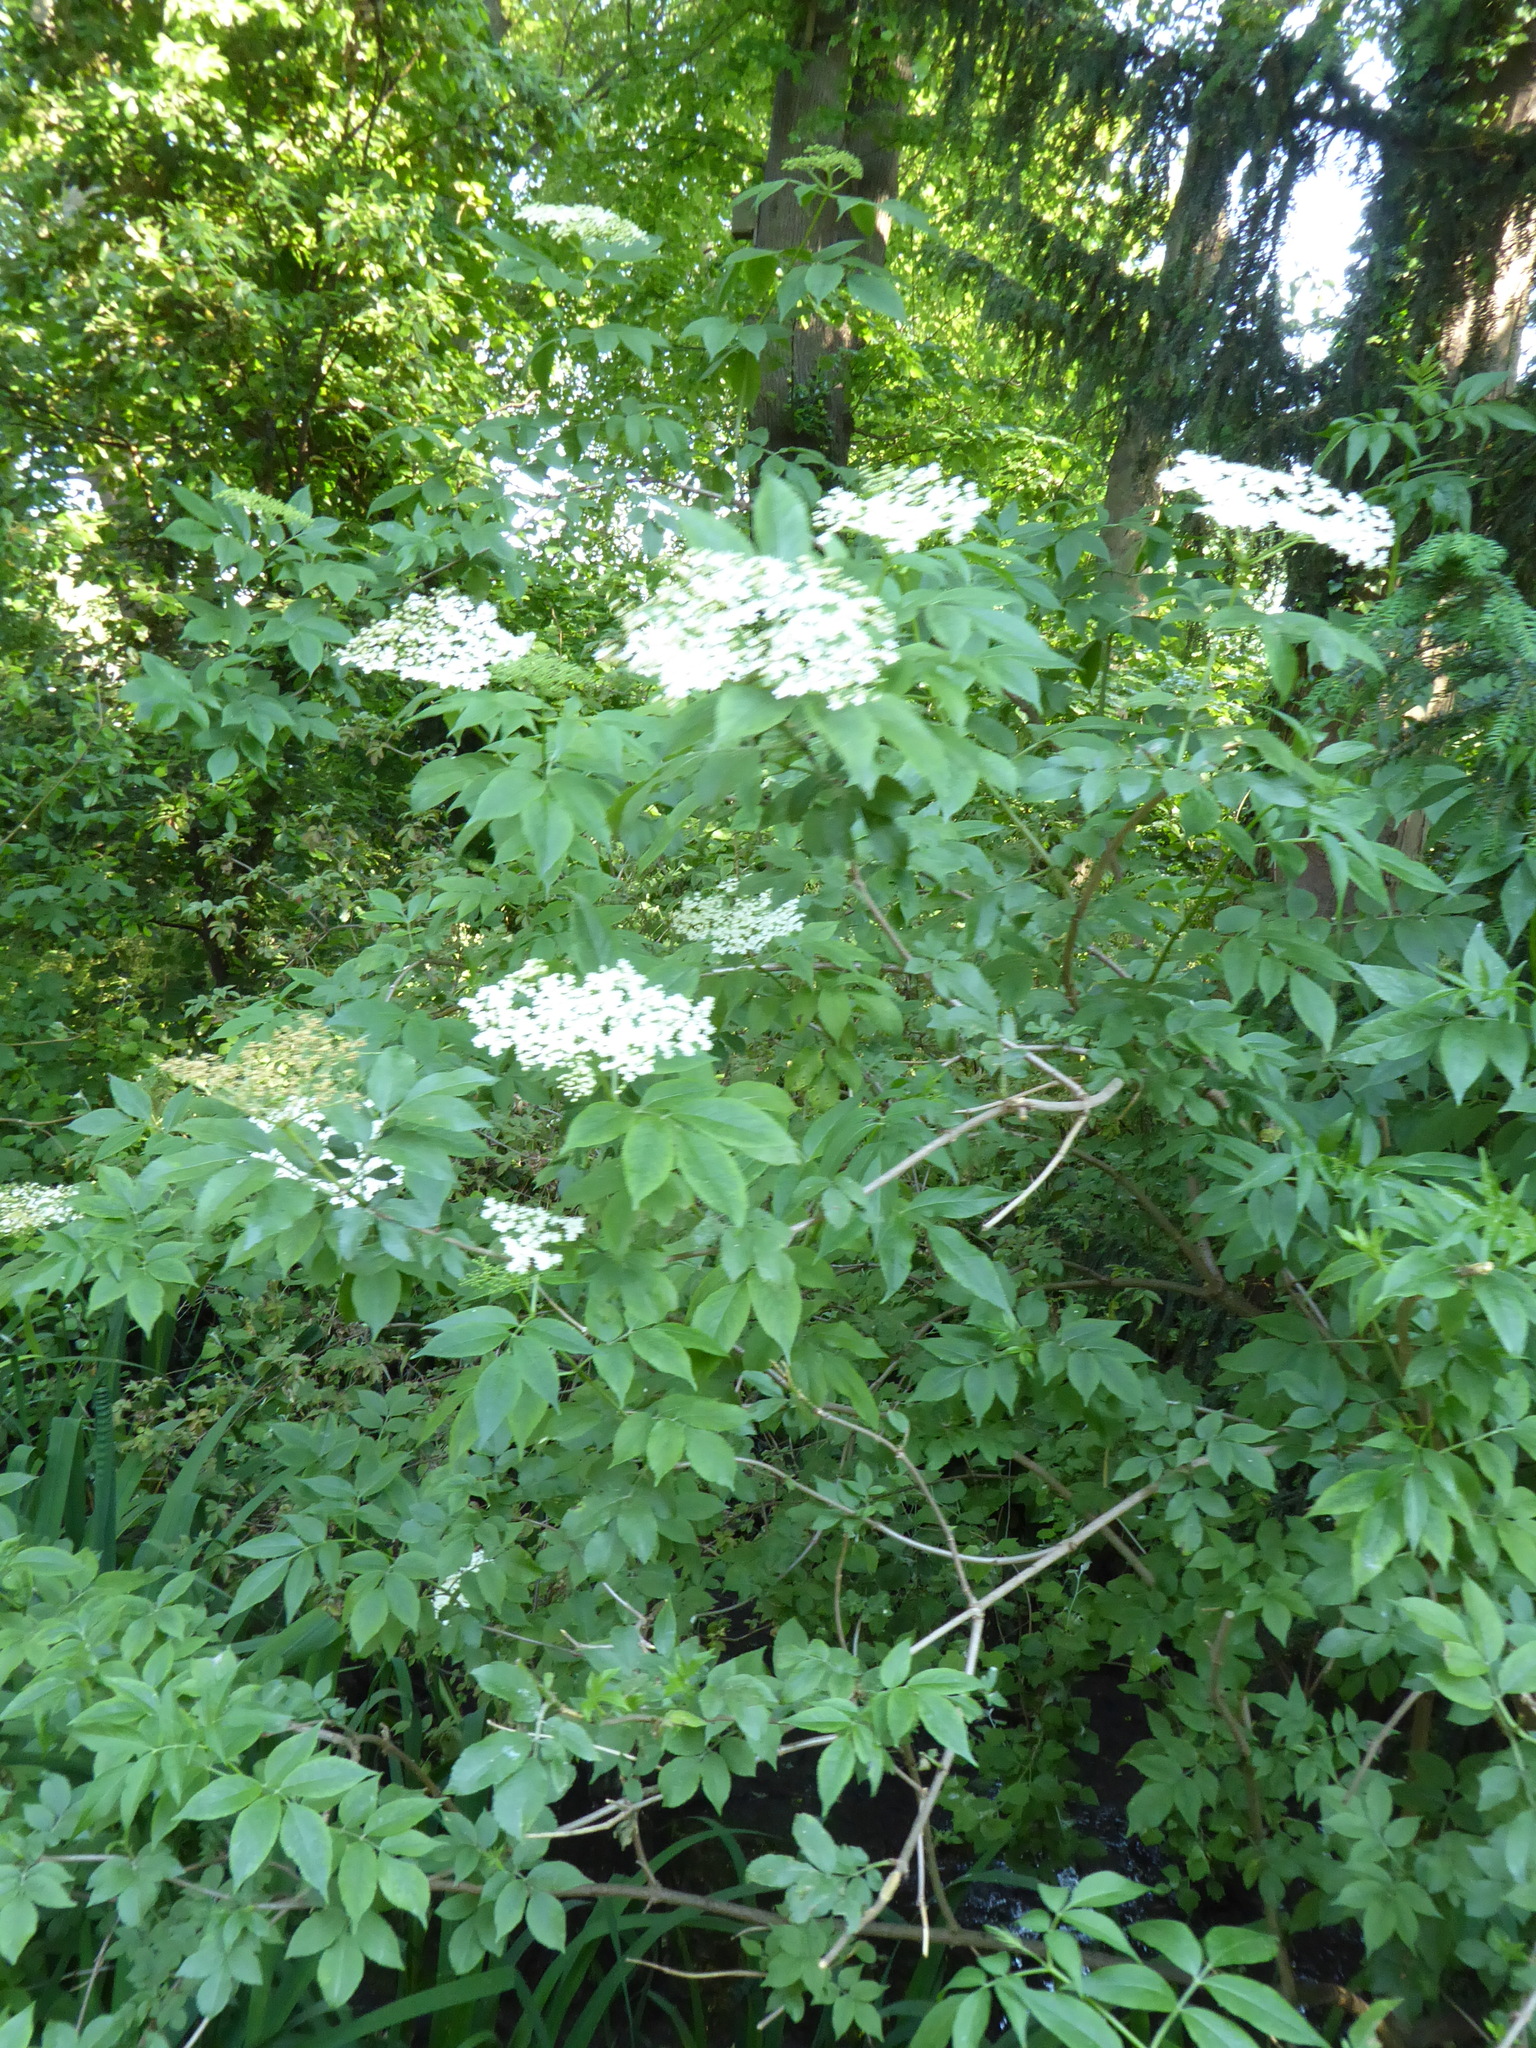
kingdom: Plantae
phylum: Tracheophyta
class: Magnoliopsida
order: Dipsacales
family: Viburnaceae
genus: Sambucus
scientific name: Sambucus nigra
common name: Elder
